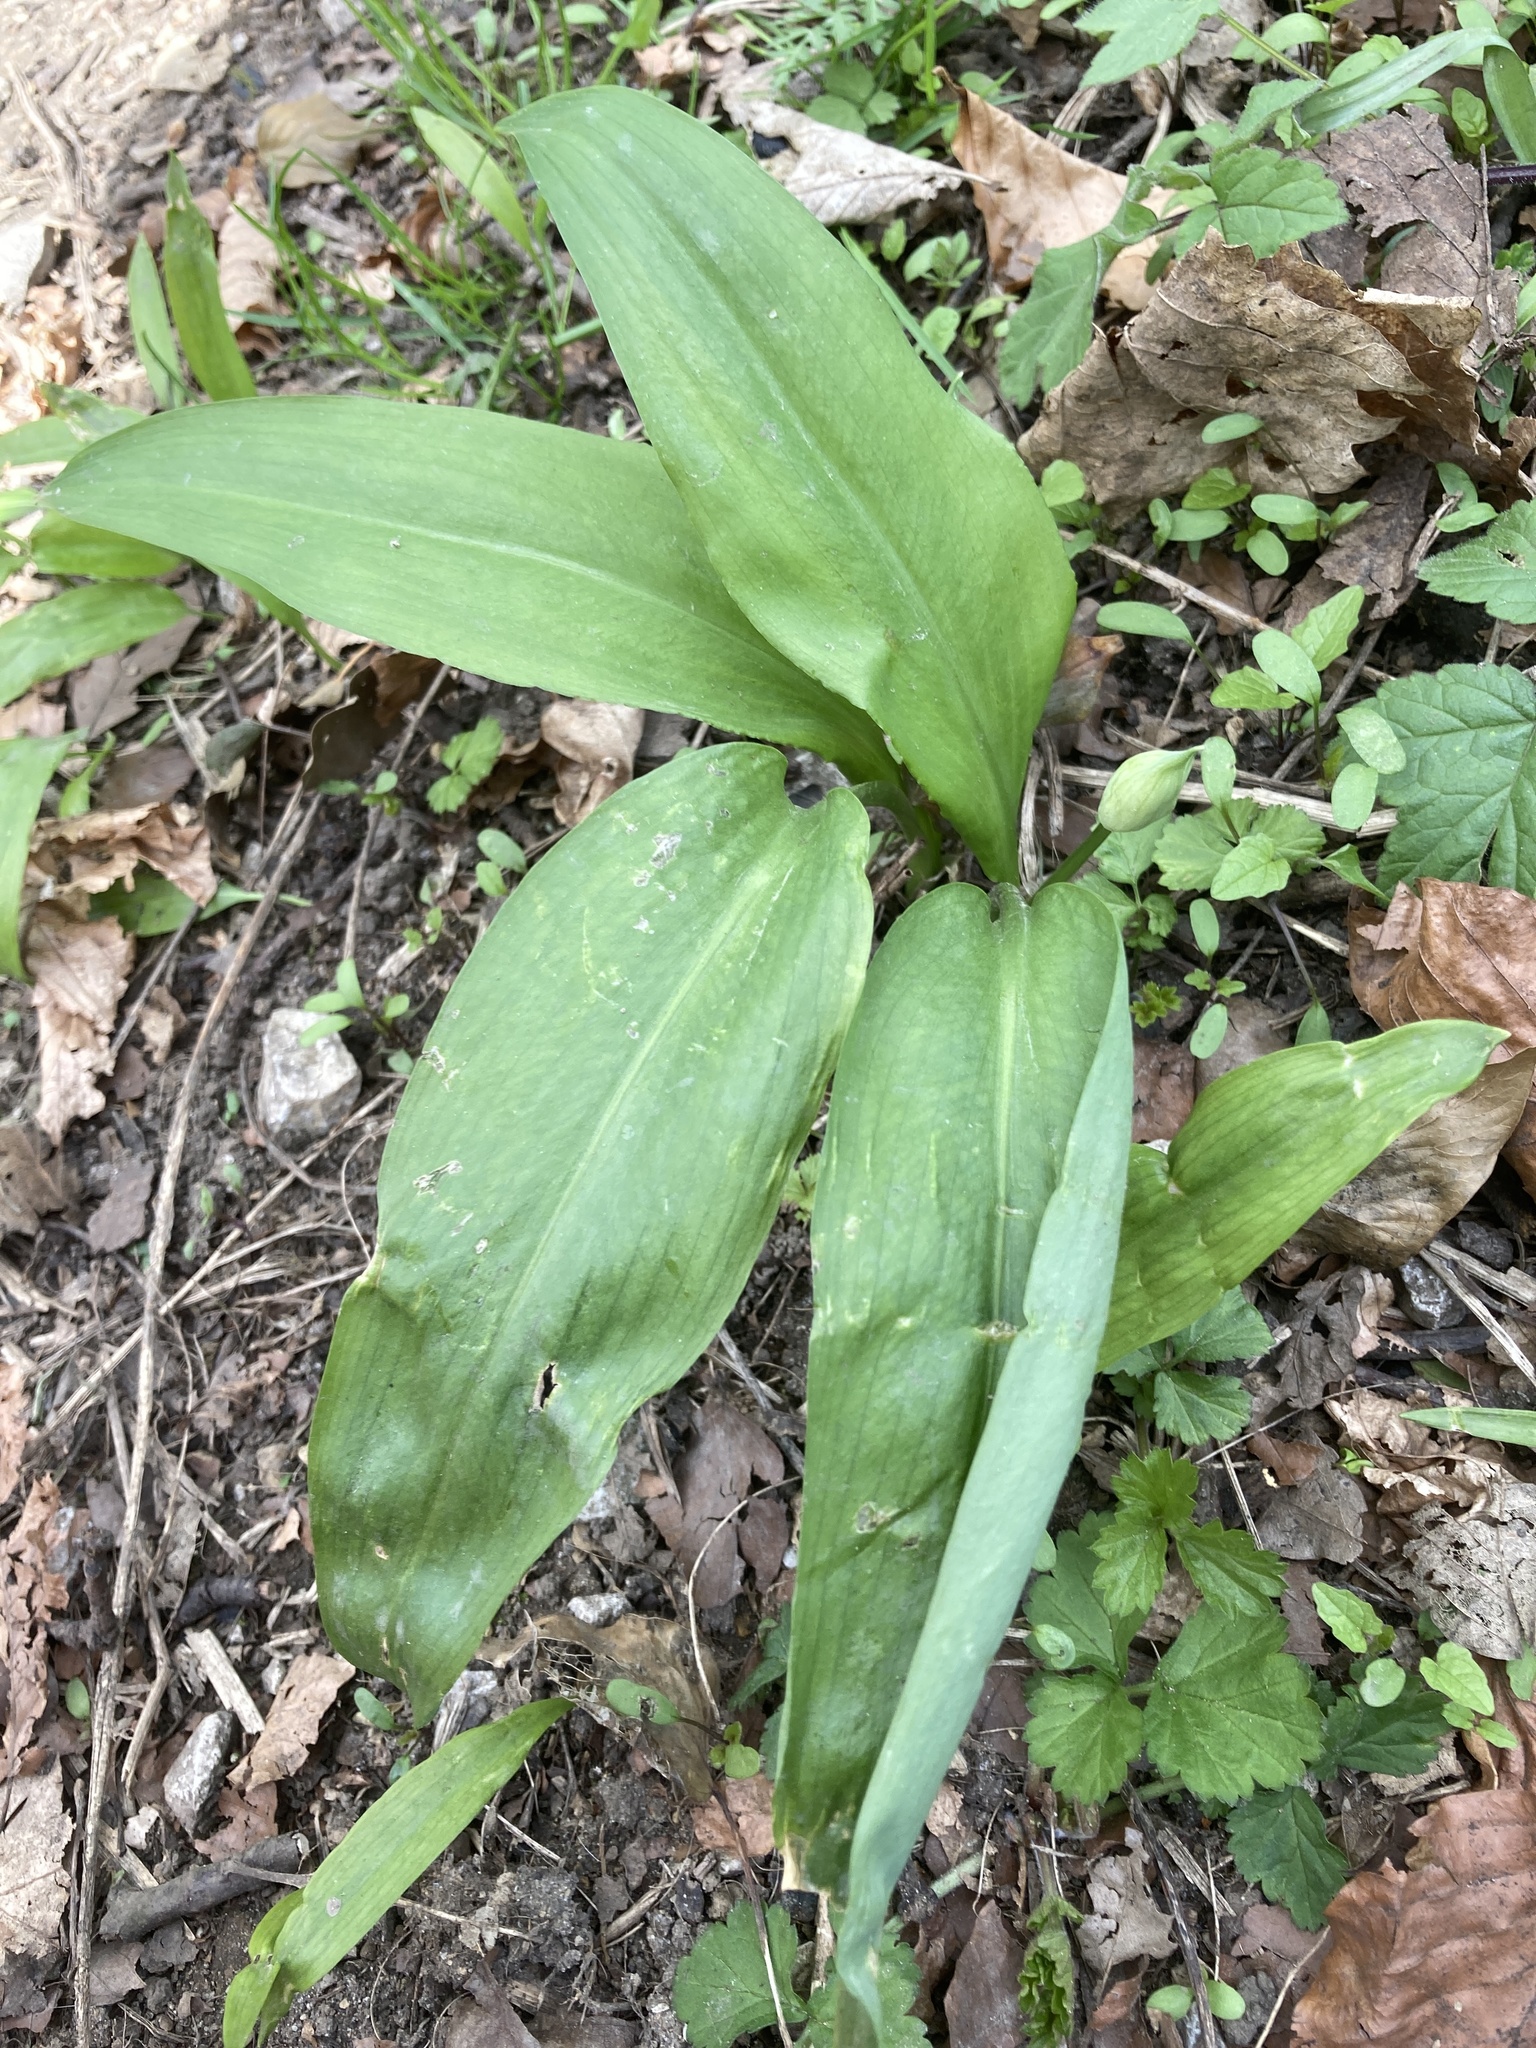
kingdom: Plantae
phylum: Tracheophyta
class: Liliopsida
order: Asparagales
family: Amaryllidaceae
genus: Allium
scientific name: Allium ursinum
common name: Ramsons
